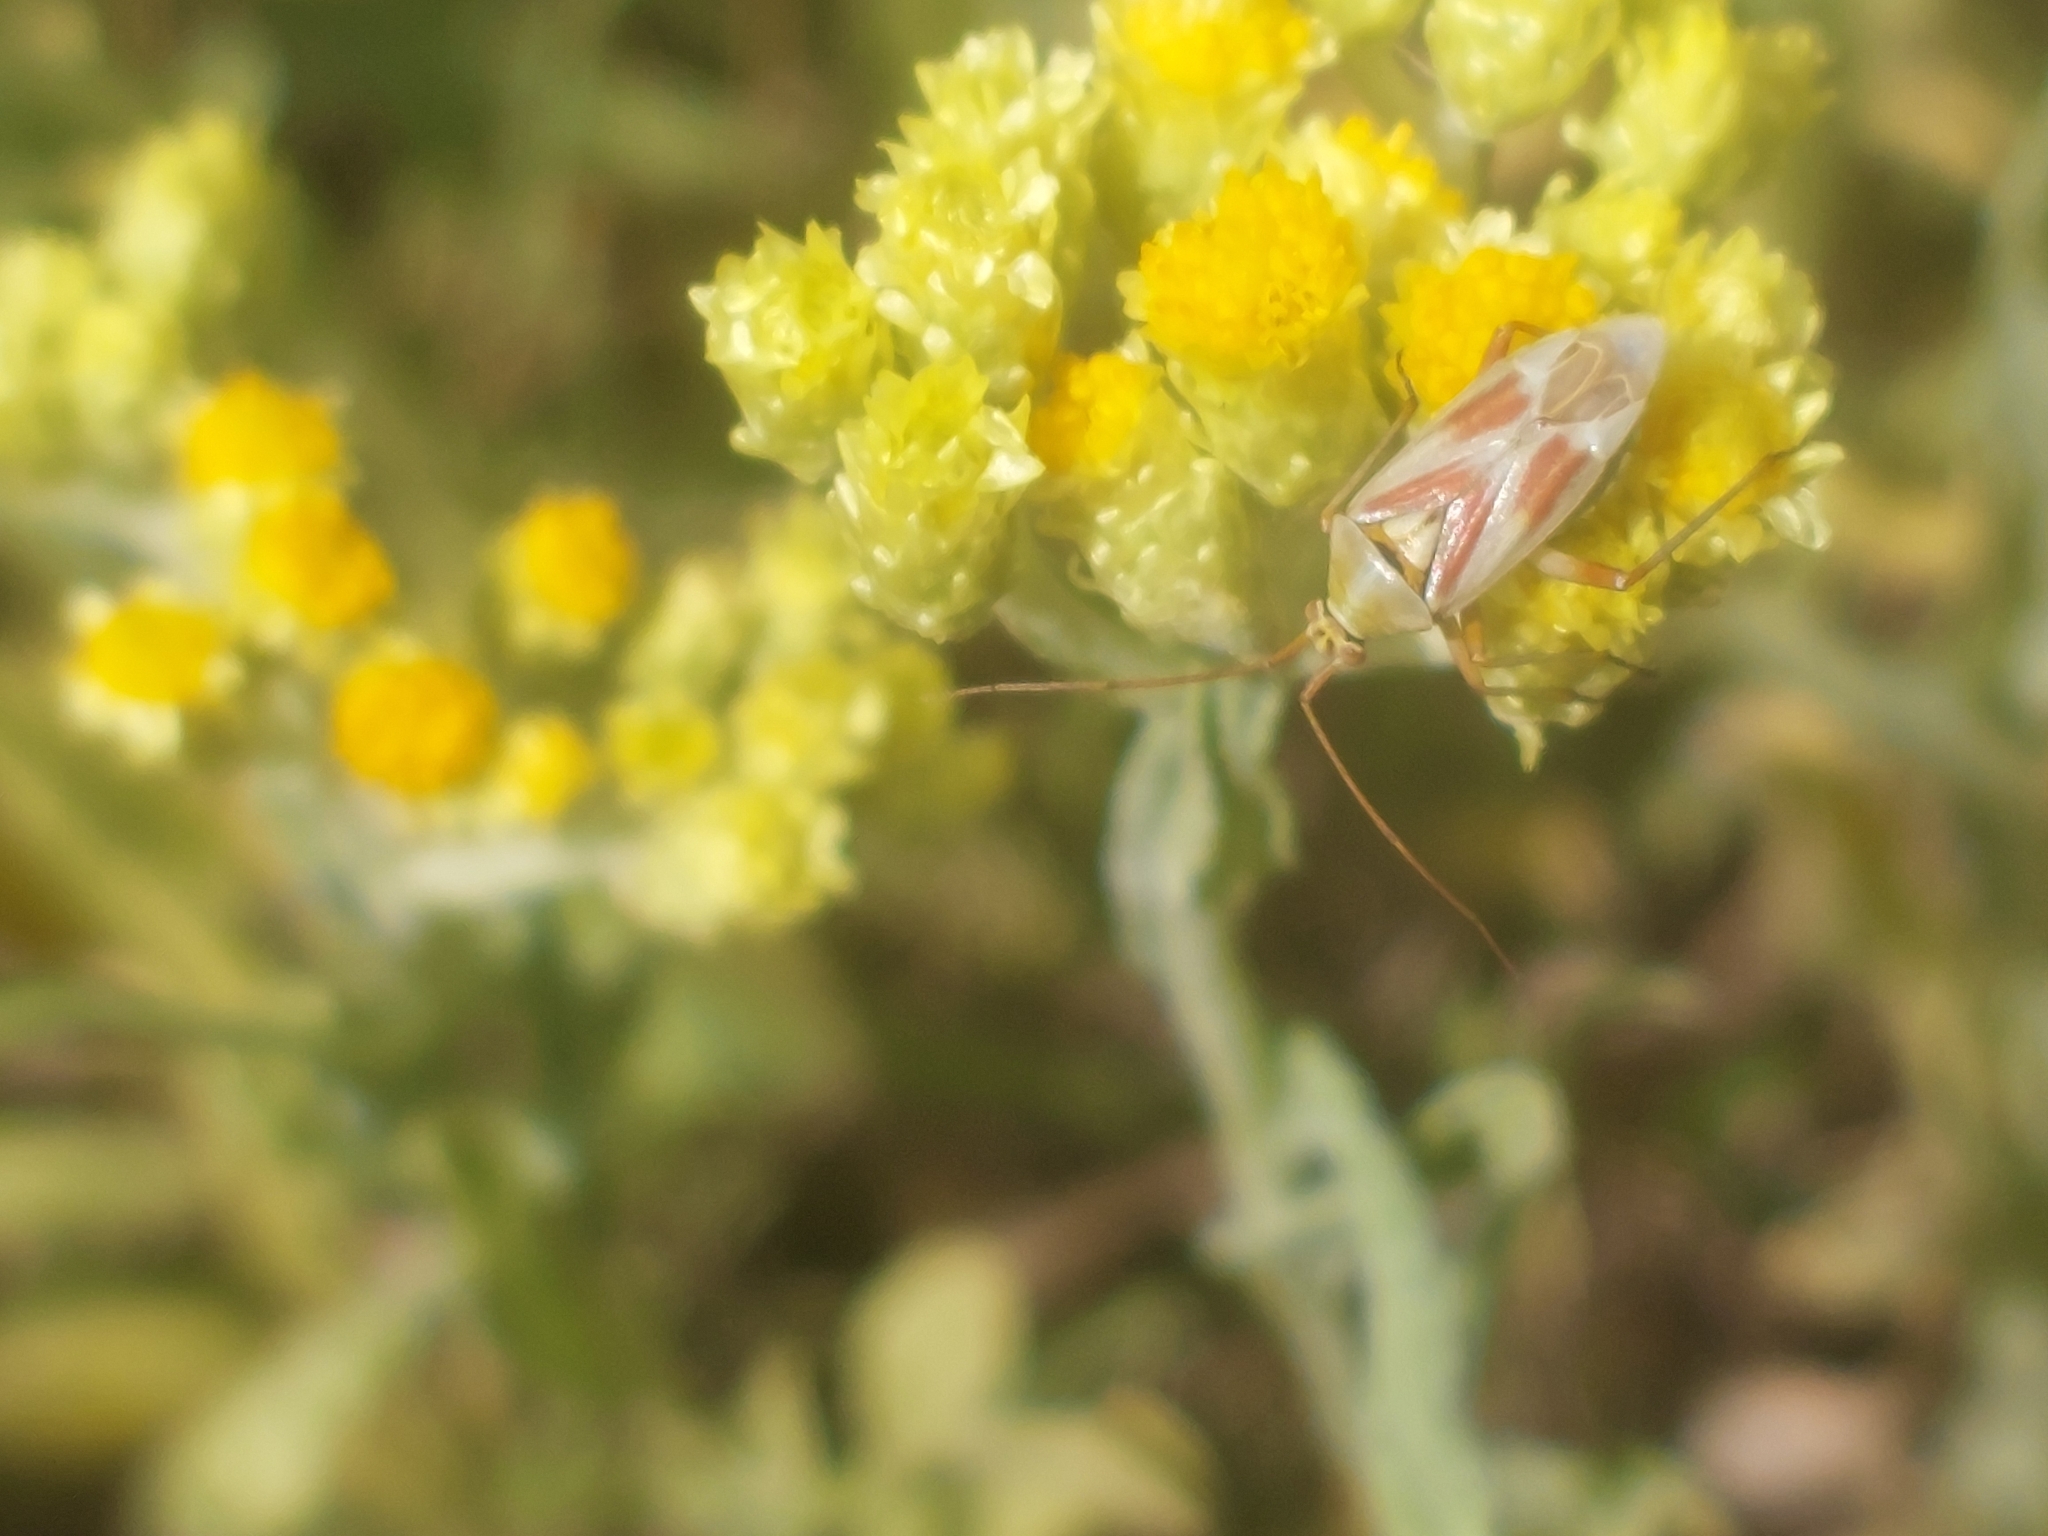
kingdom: Animalia
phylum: Arthropoda
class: Insecta
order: Hemiptera
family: Miridae
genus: Calocoris
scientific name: Calocoris roseomaculatus
